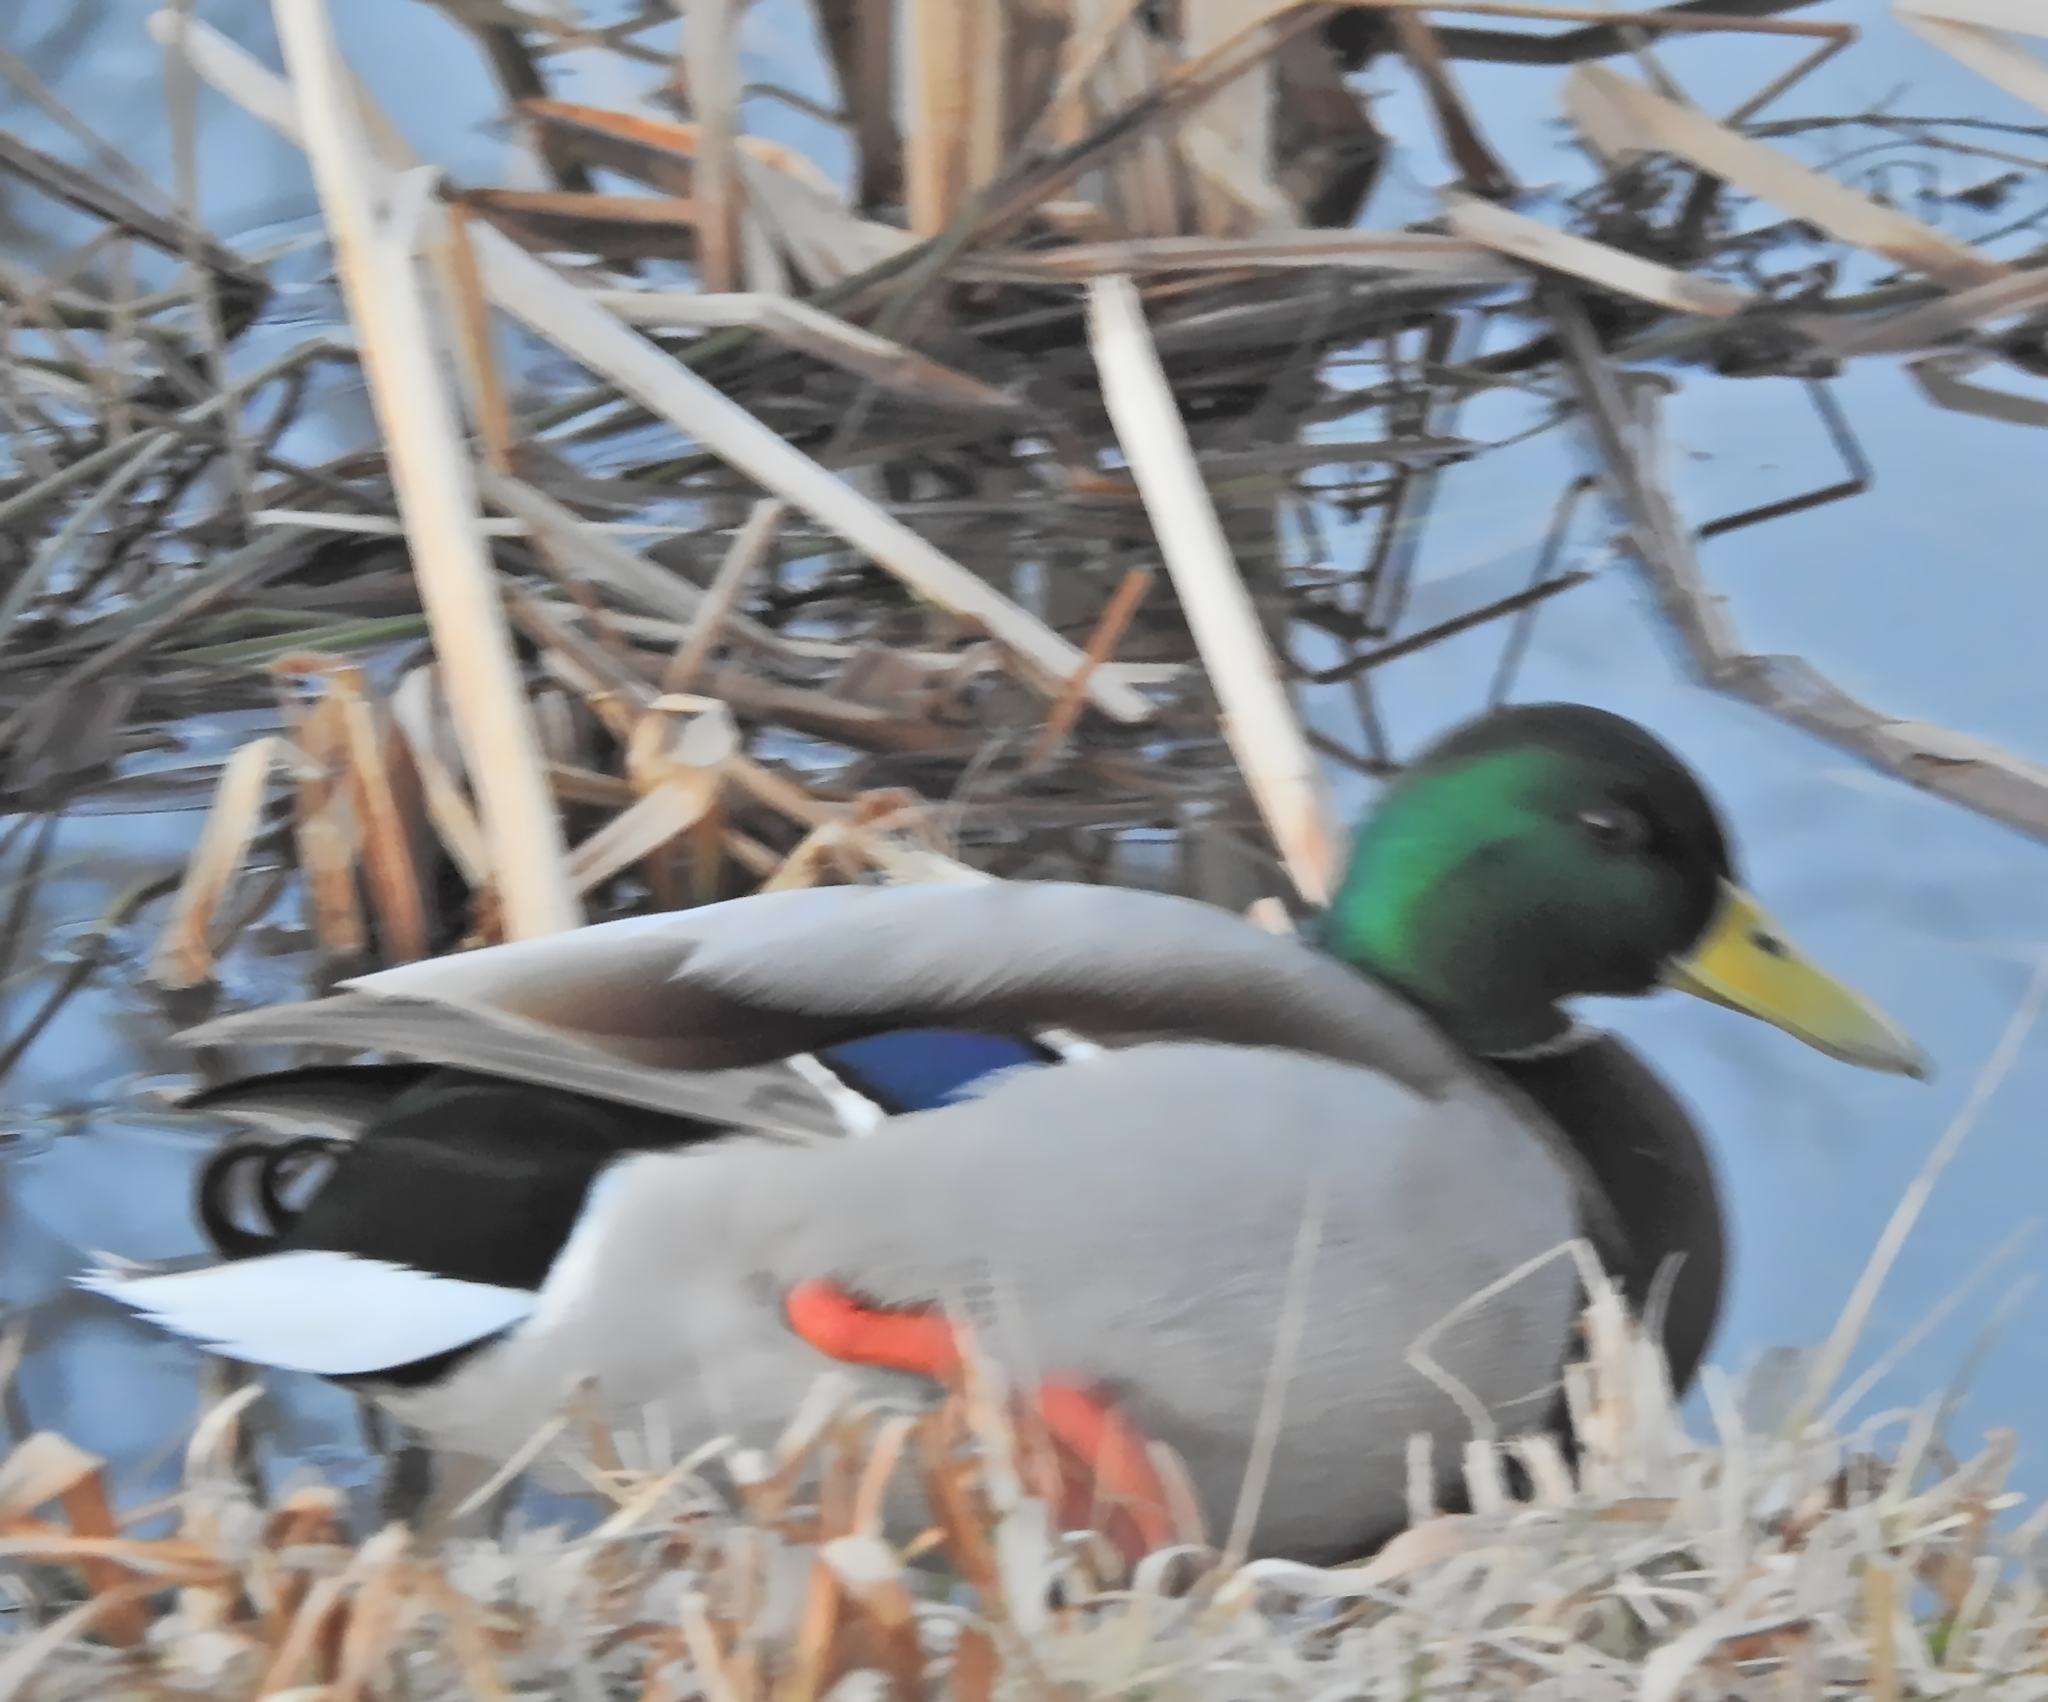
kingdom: Animalia
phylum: Chordata
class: Aves
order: Anseriformes
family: Anatidae
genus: Anas
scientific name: Anas platyrhynchos
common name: Mallard
